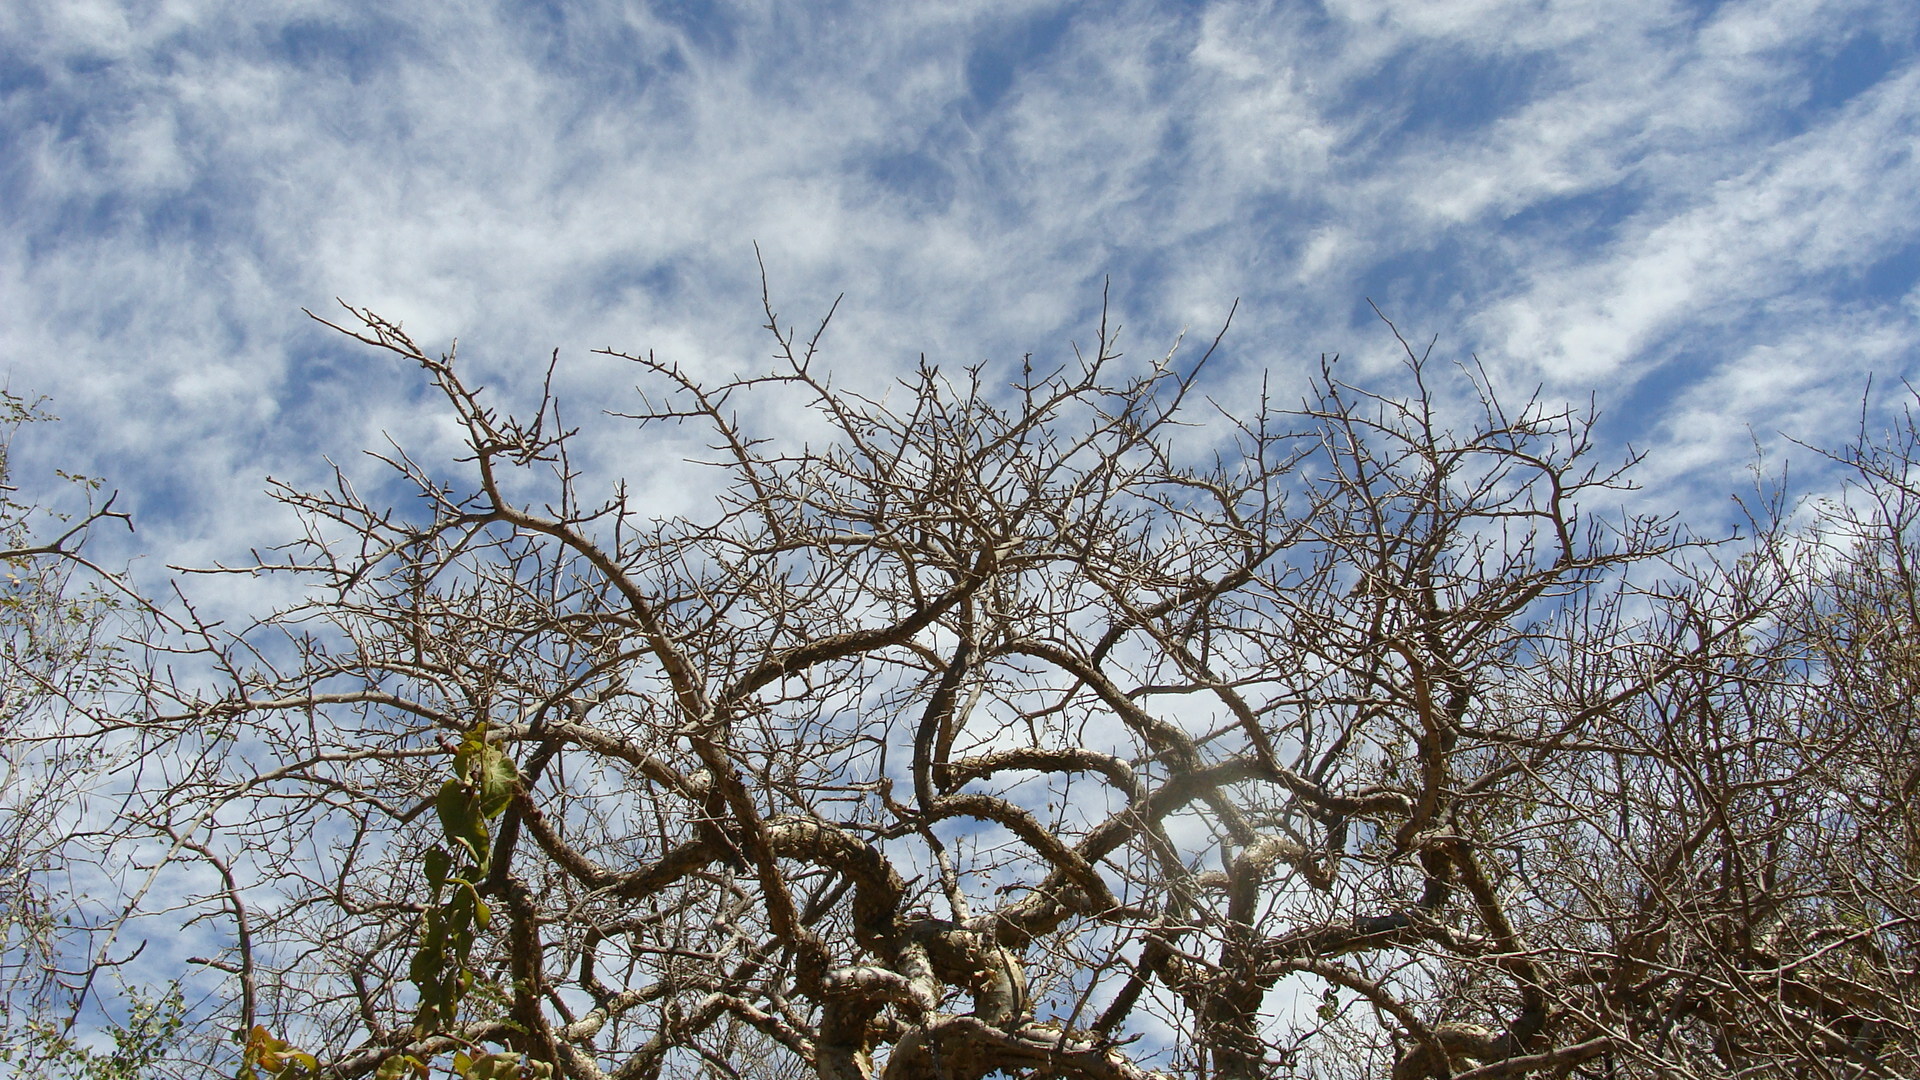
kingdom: Plantae
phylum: Tracheophyta
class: Magnoliopsida
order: Sapindales
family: Burseraceae
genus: Bursera
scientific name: Bursera microphylla
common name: Elephant tree
